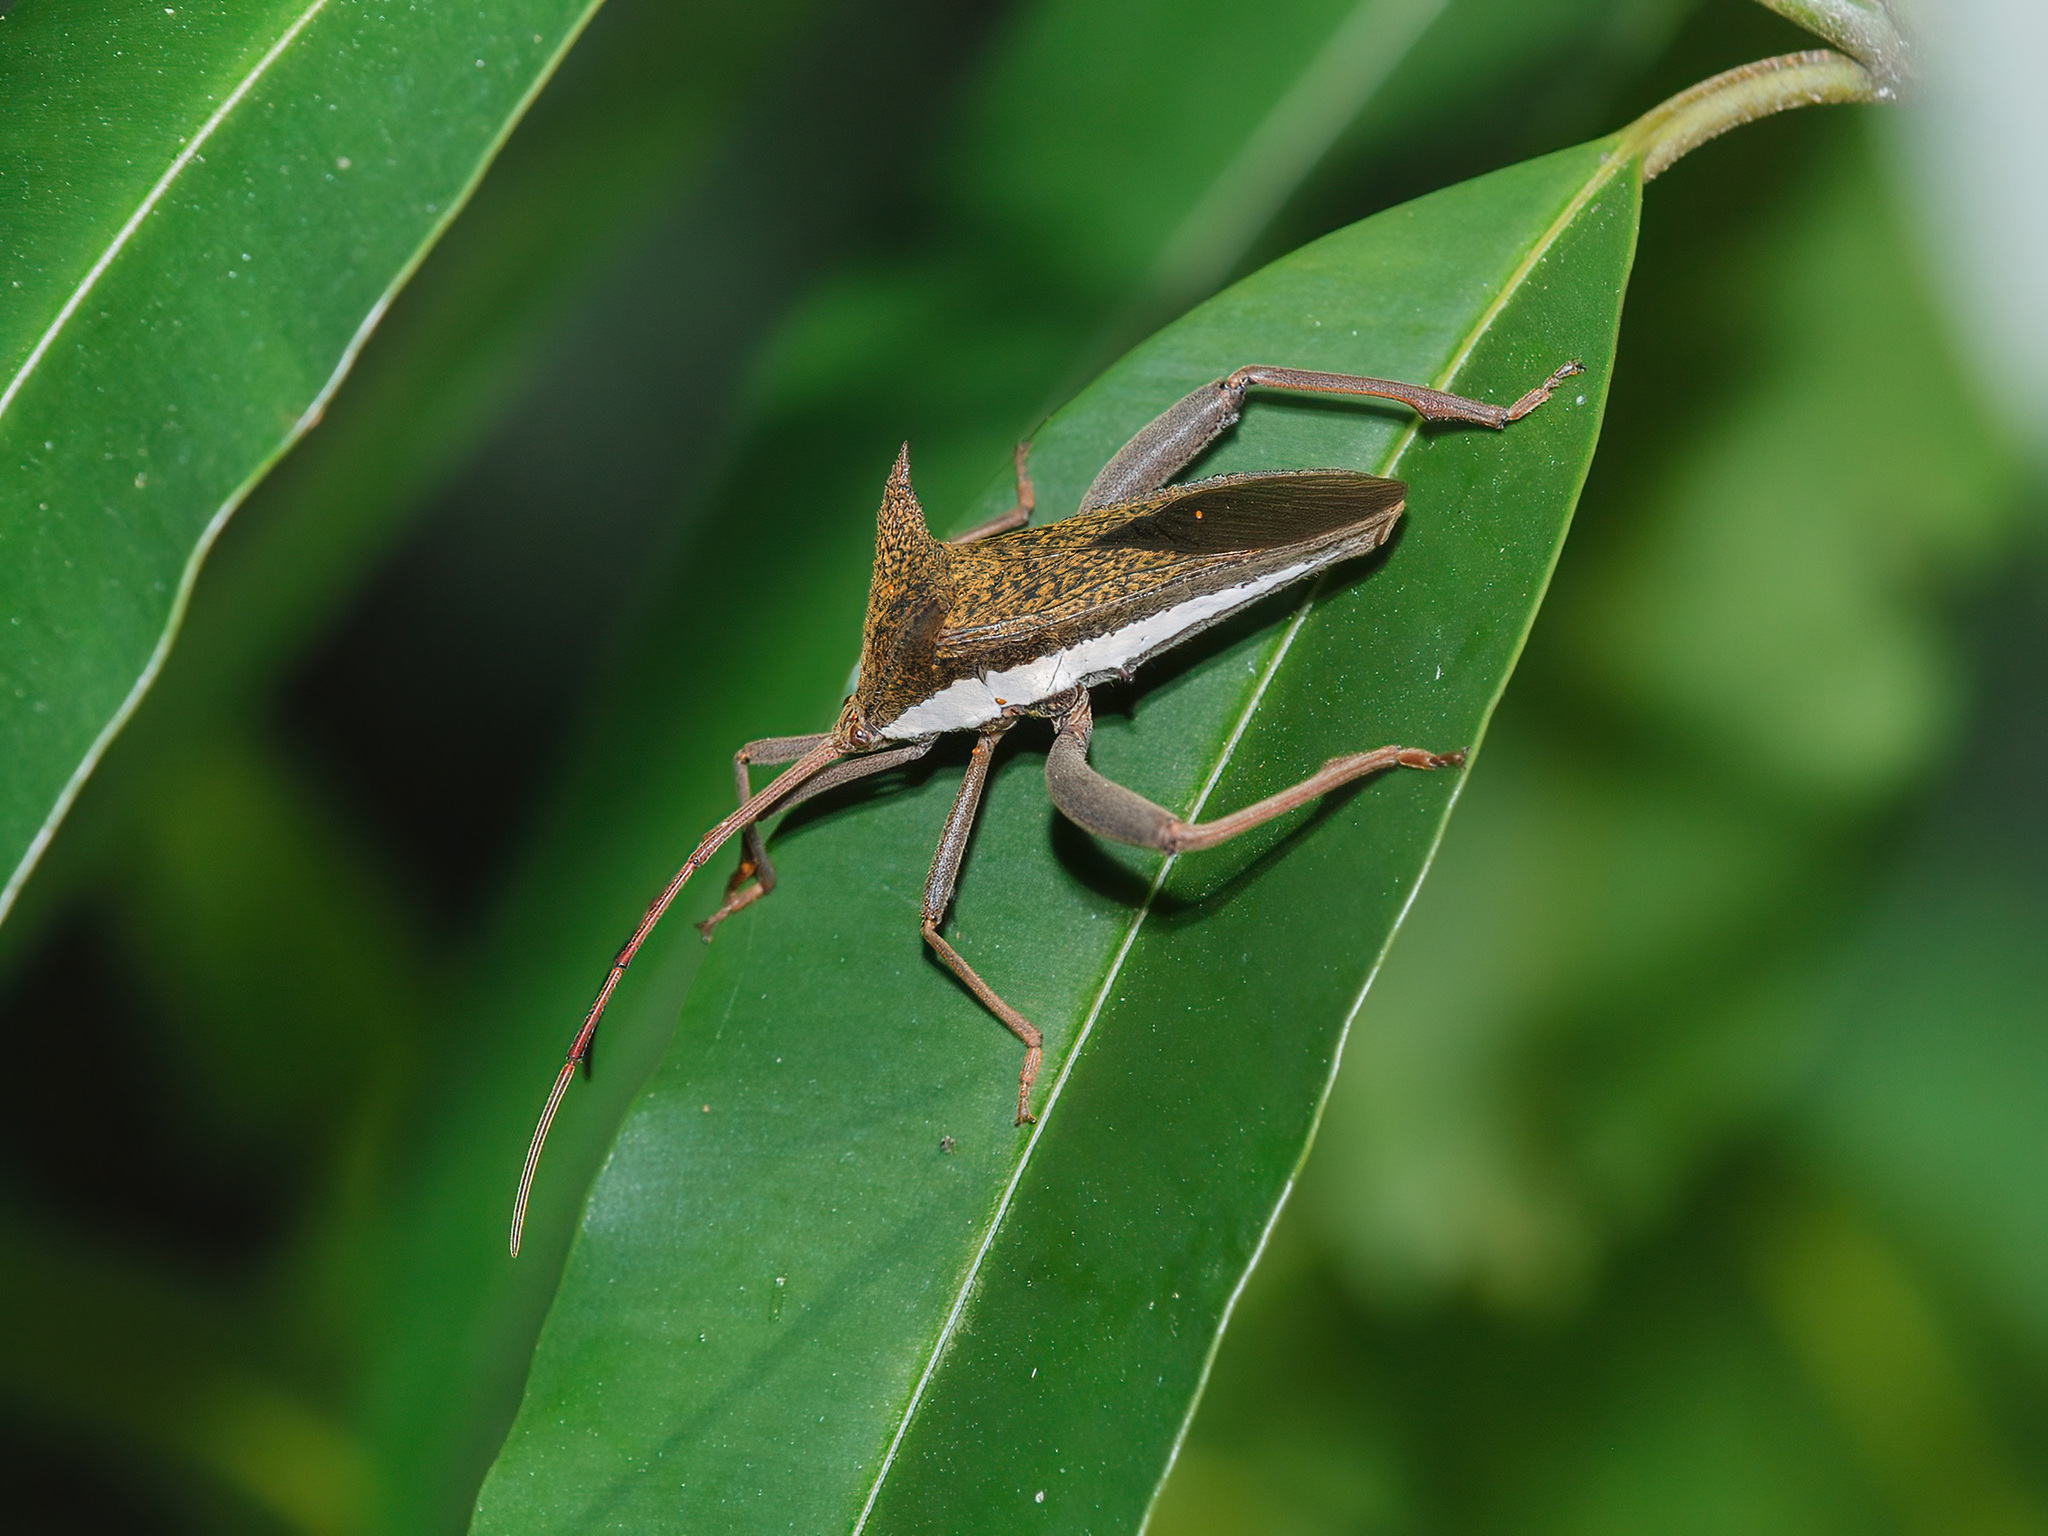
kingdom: Animalia
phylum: Arthropoda
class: Insecta
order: Hemiptera
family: Coreidae
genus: Aspilosterna
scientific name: Aspilosterna albovittata
